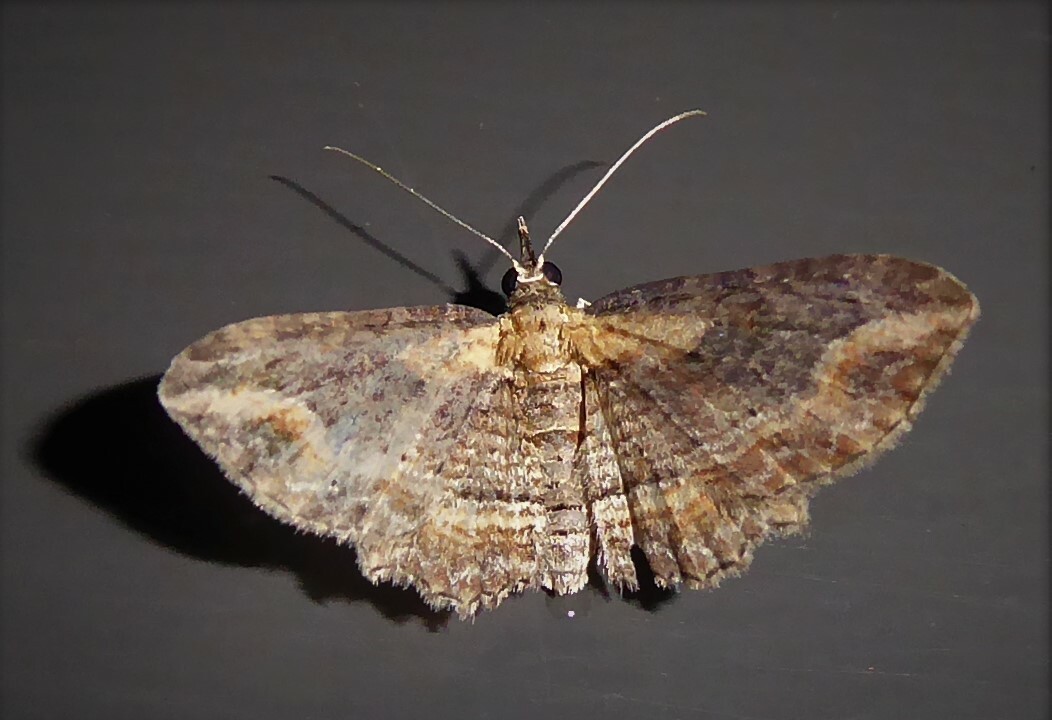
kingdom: Animalia
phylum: Arthropoda
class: Insecta
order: Lepidoptera
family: Geometridae
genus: Chloroclystis
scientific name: Chloroclystis filata
